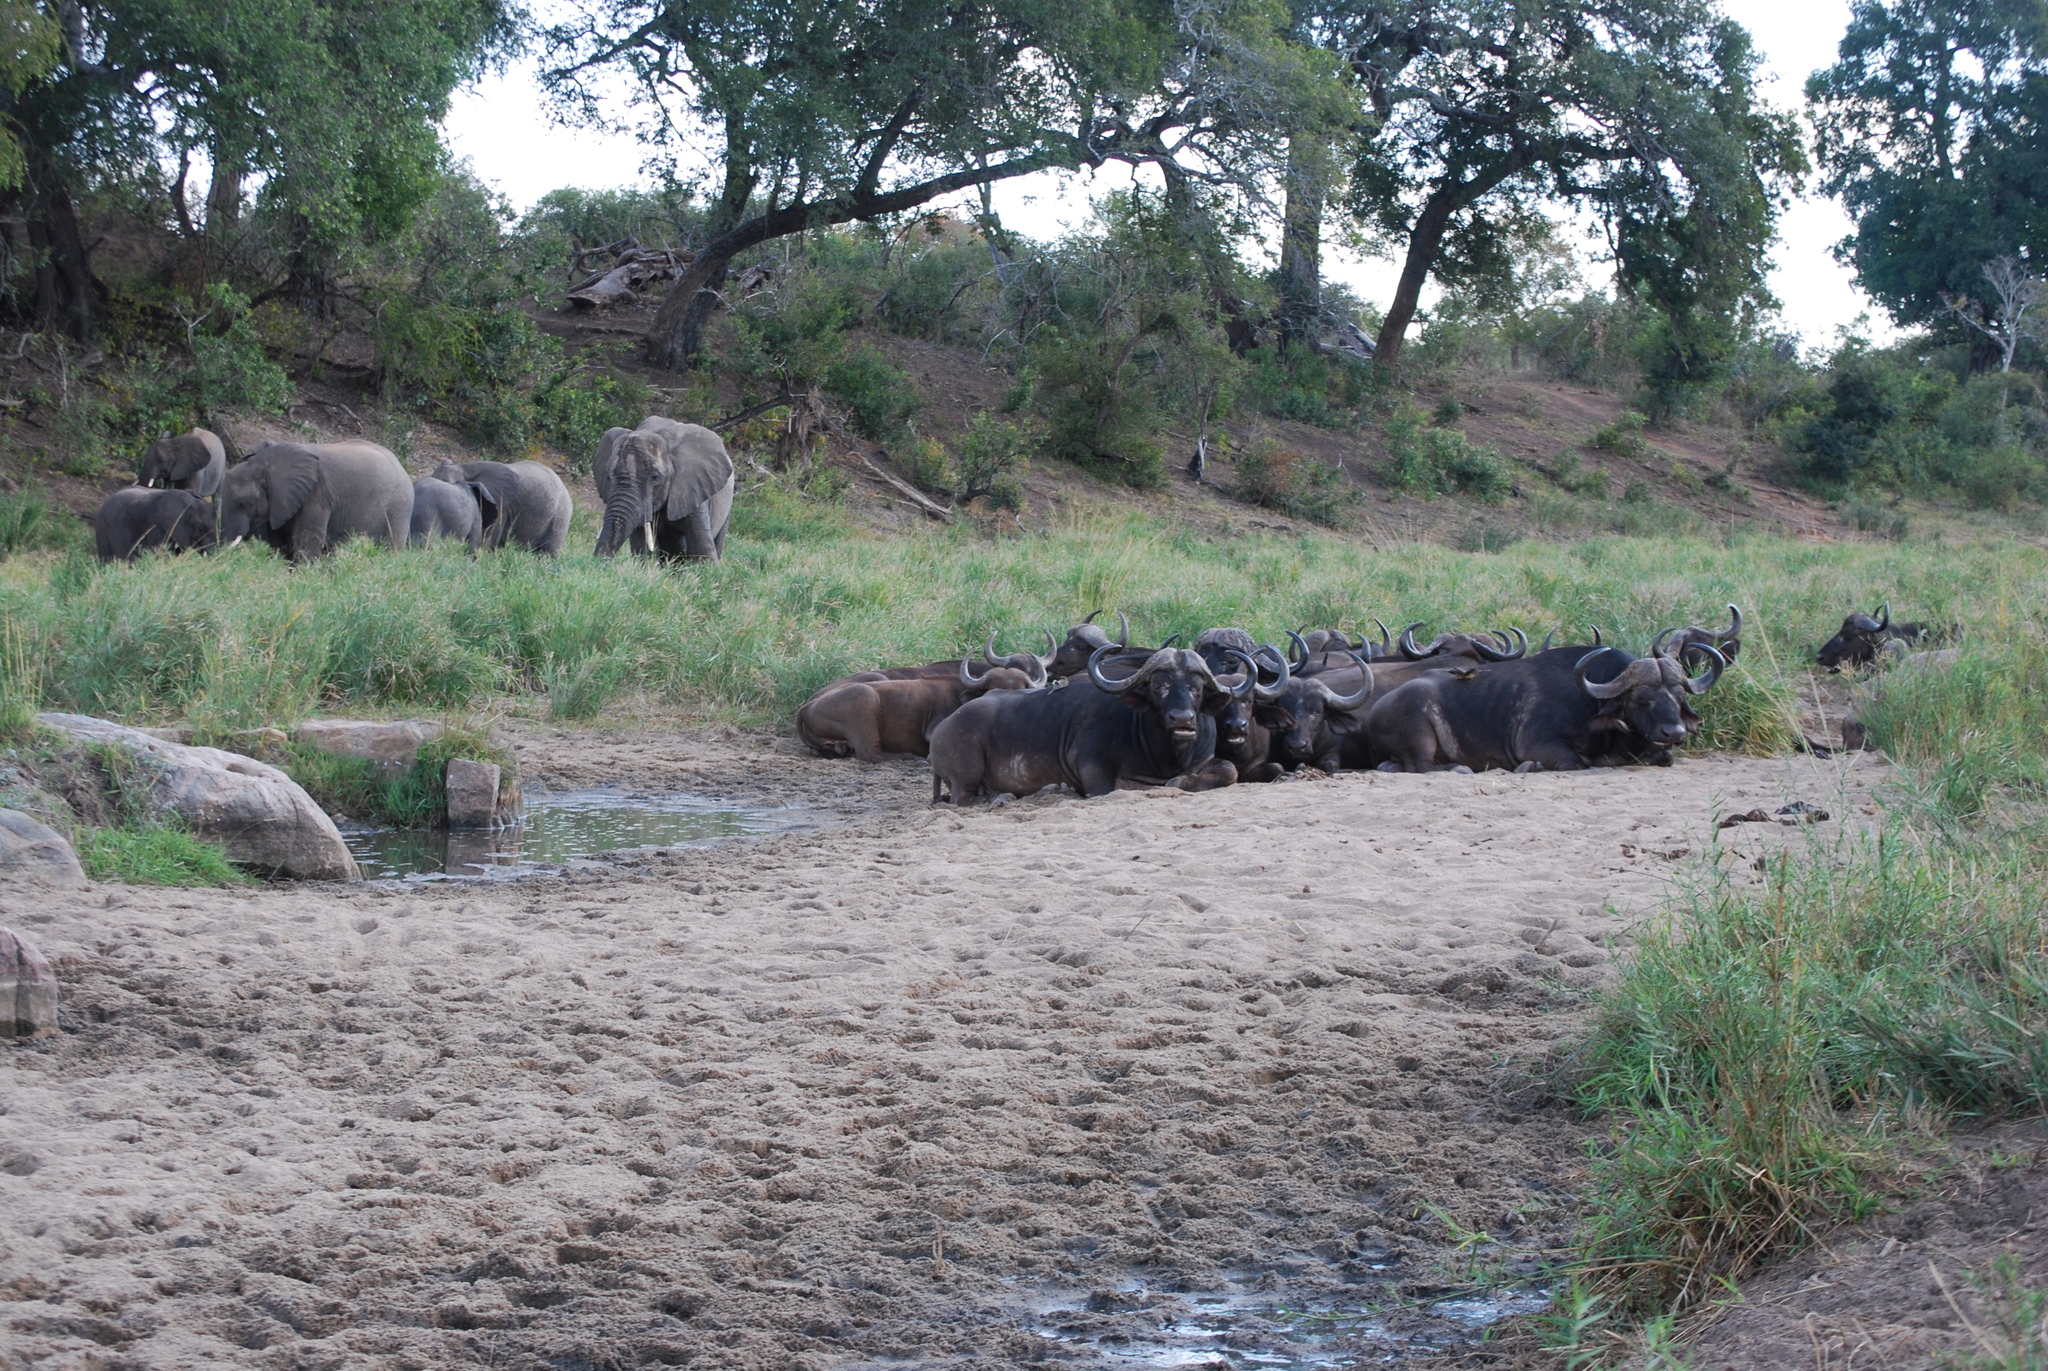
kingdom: Animalia
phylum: Chordata
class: Mammalia
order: Proboscidea
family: Elephantidae
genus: Loxodonta
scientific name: Loxodonta africana
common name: African elephant
